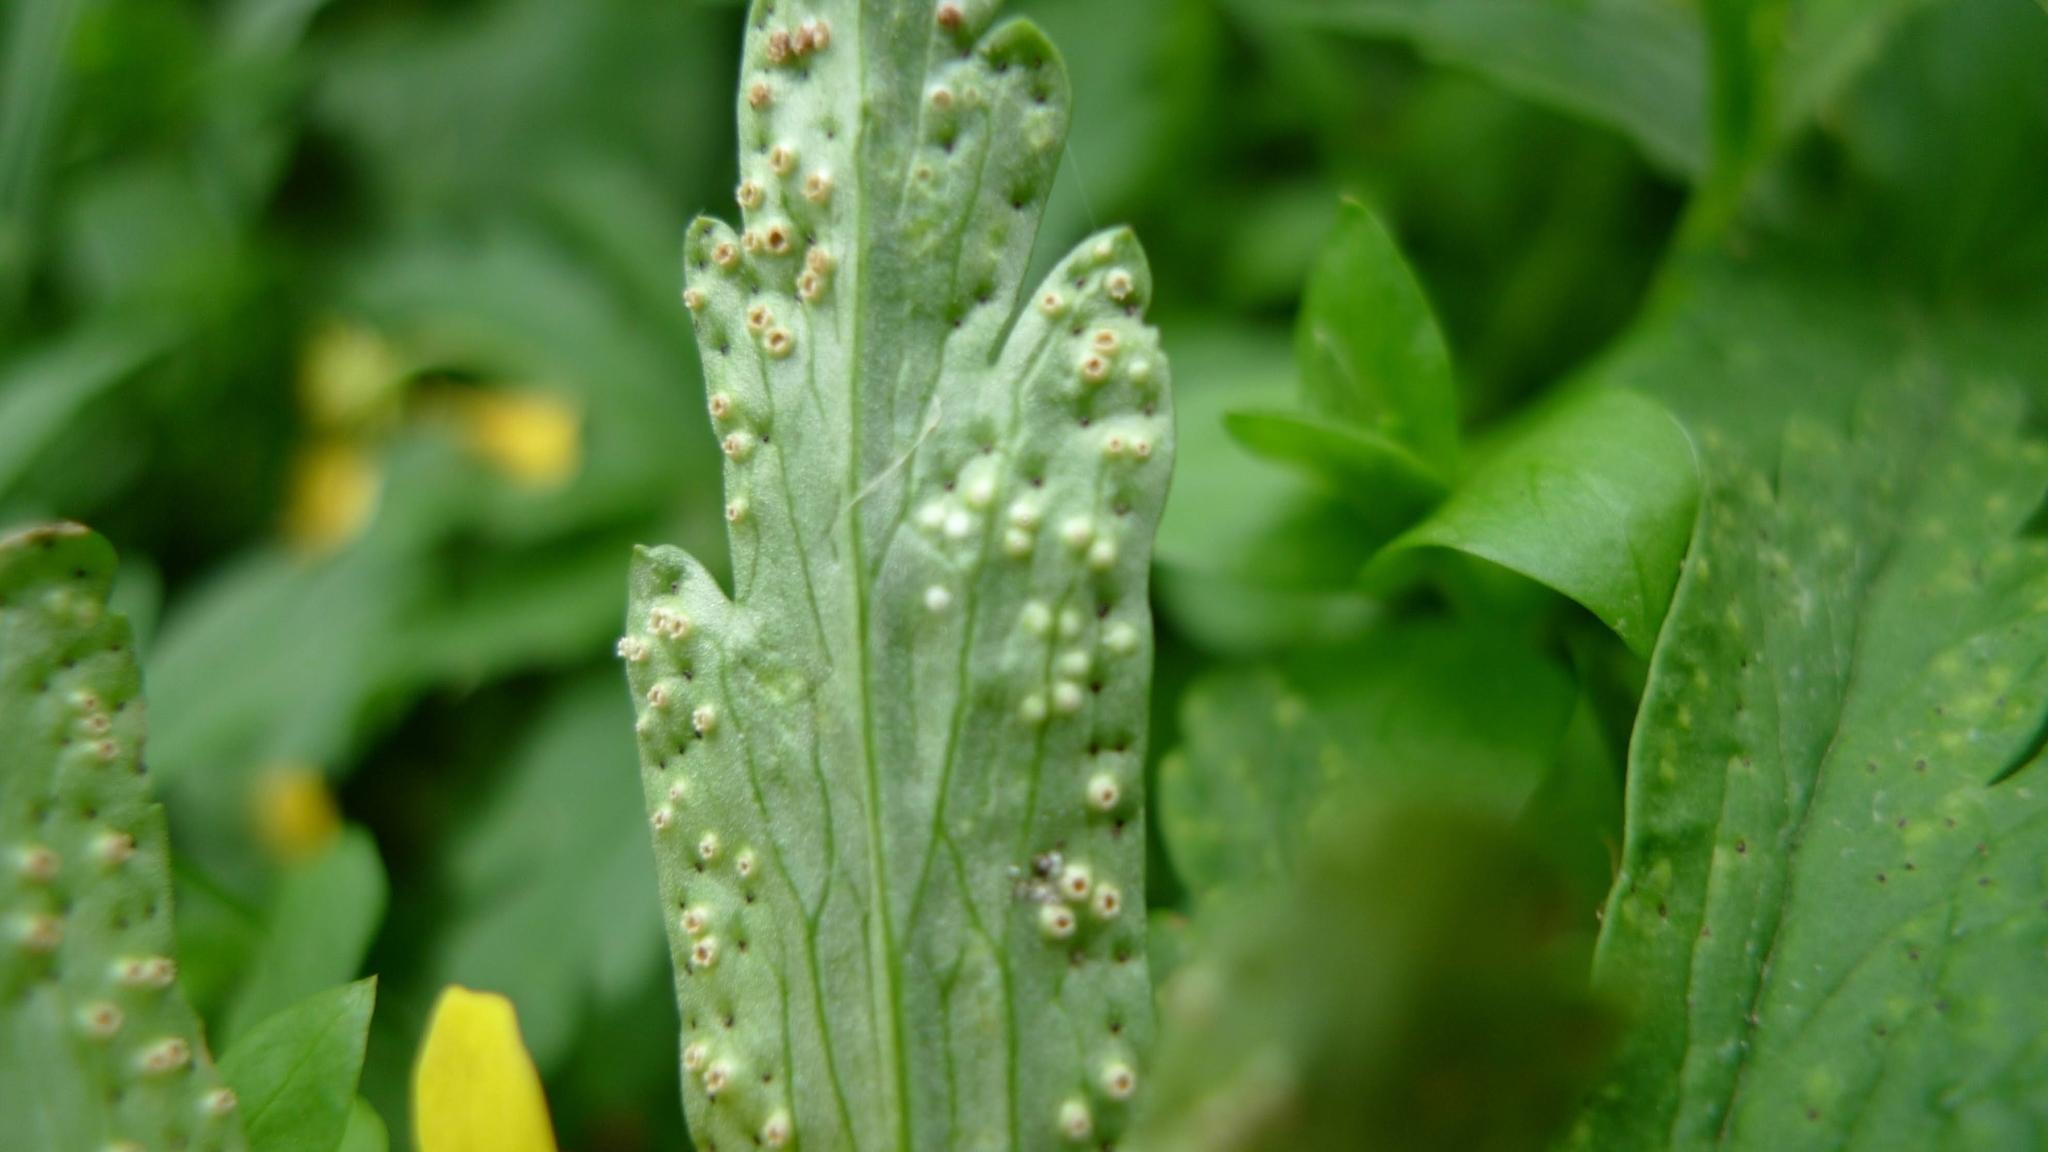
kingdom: Fungi
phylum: Basidiomycota
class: Pucciniomycetes
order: Pucciniales
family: Tranzscheliaceae
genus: Tranzschelia
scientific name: Tranzschelia pruni-spinosae
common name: Blackthorn rust
